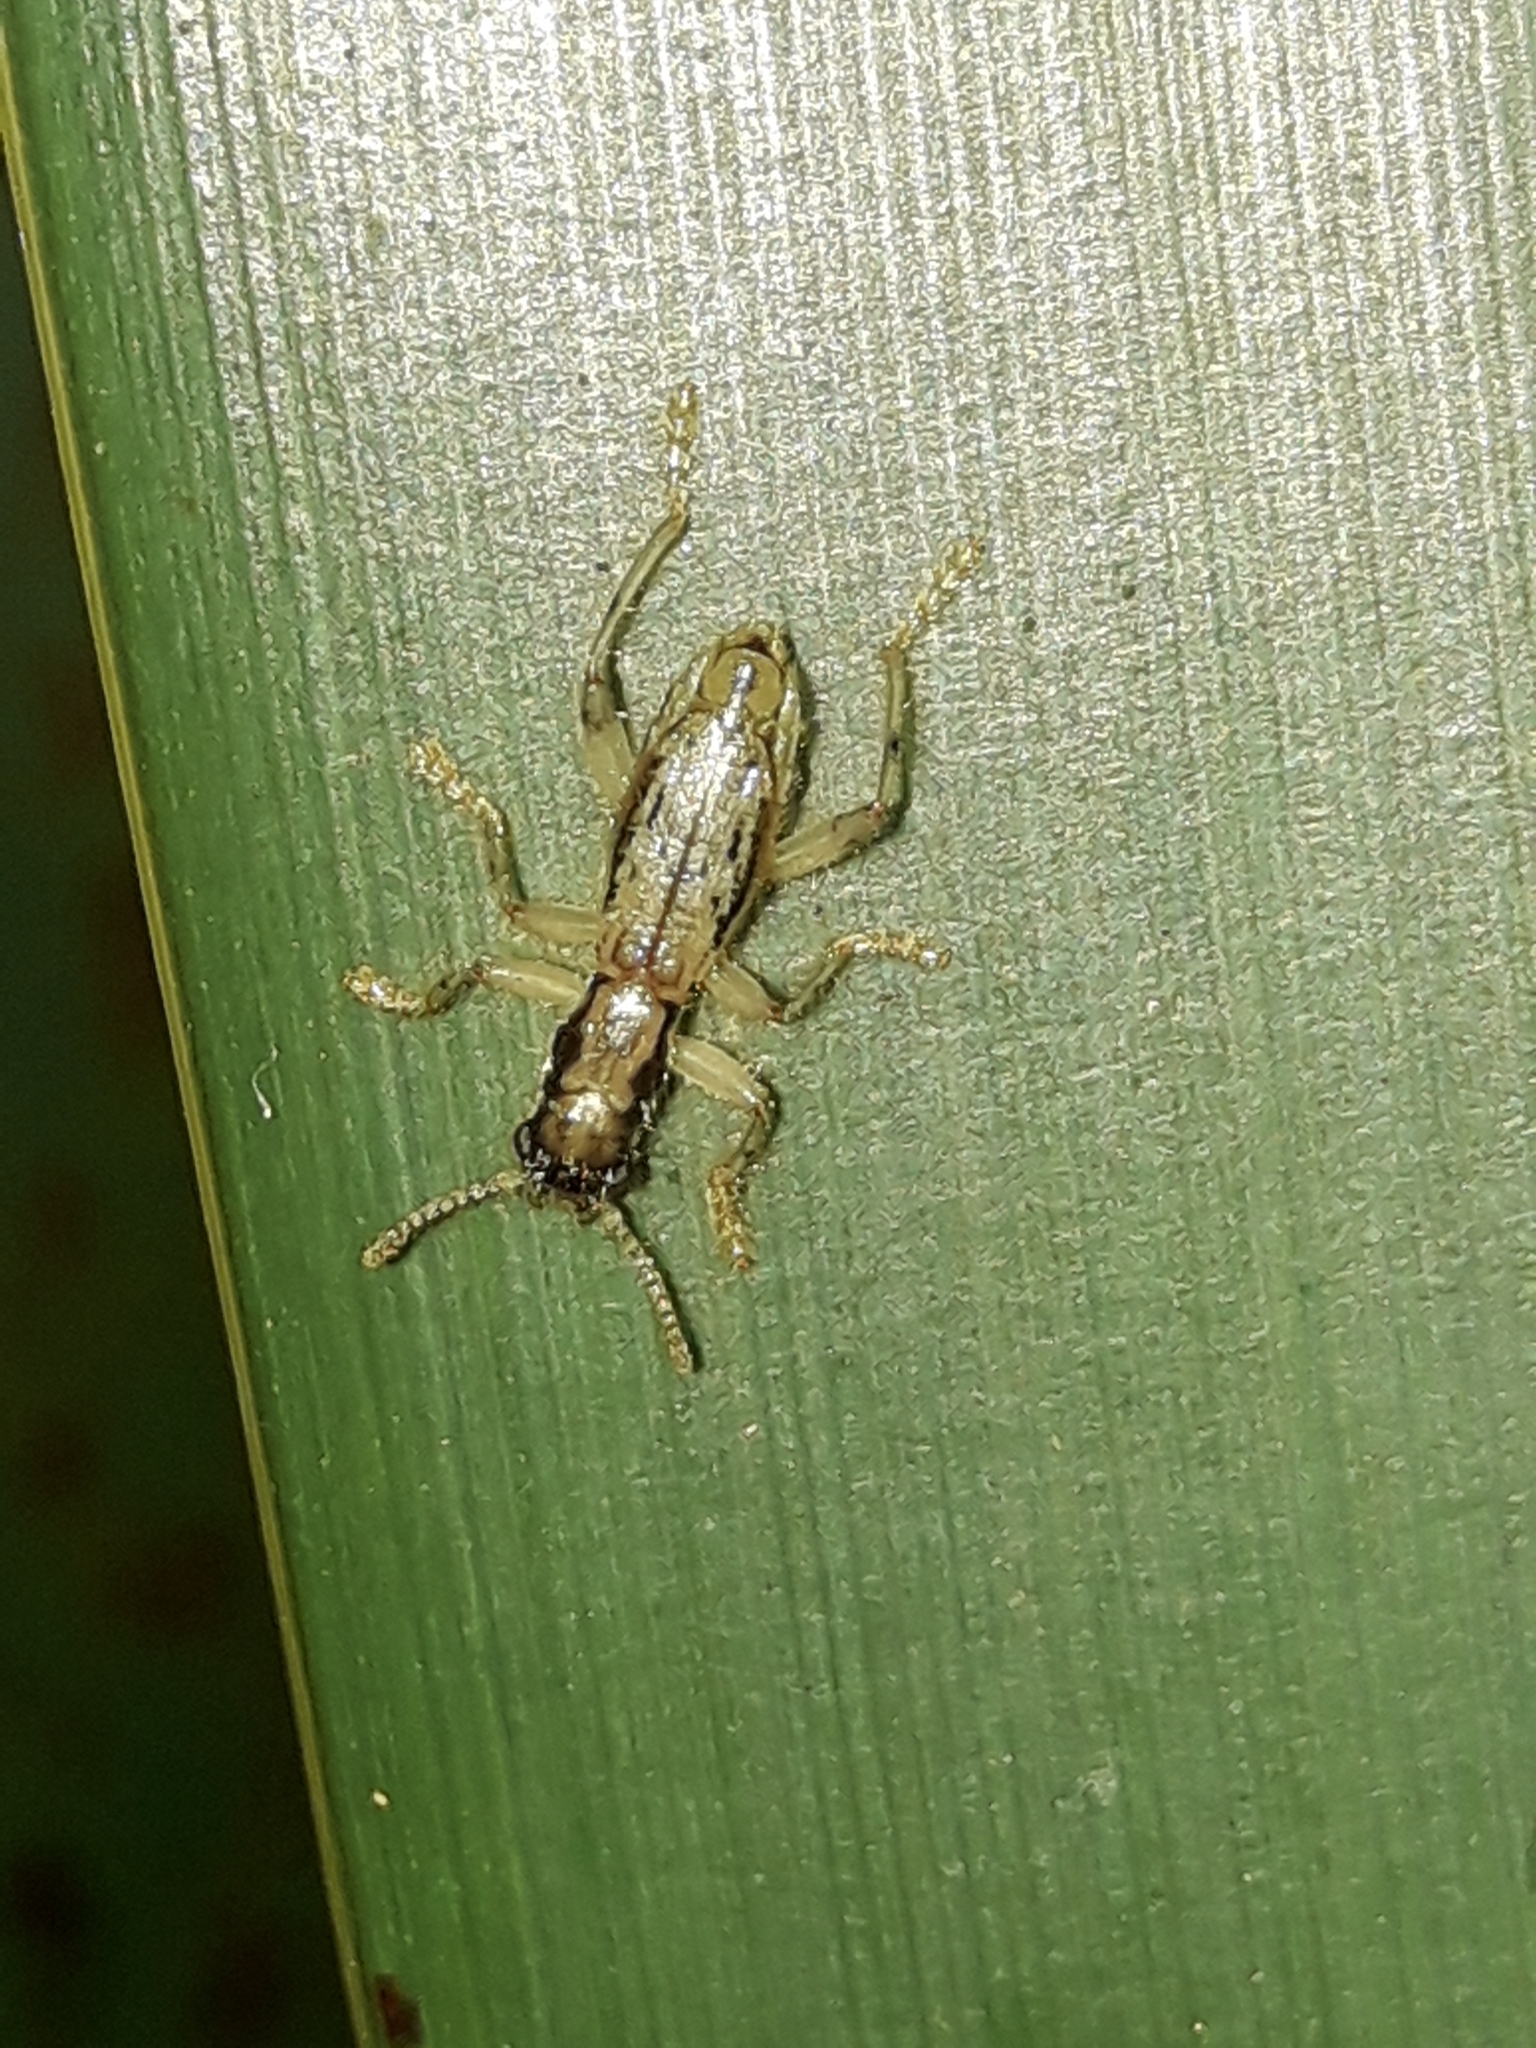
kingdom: Animalia
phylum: Arthropoda
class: Insecta
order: Coleoptera
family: Cleridae
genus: Lemidia
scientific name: Lemidia
